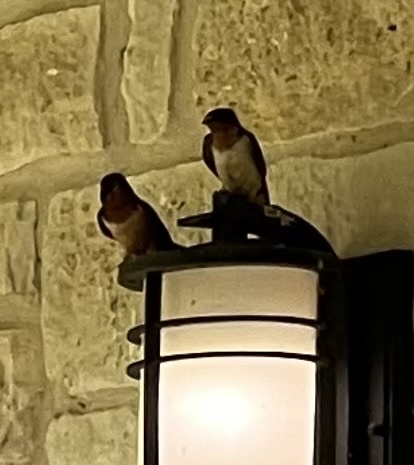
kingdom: Animalia
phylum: Chordata
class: Aves
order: Passeriformes
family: Hirundinidae
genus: Hirundo
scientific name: Hirundo rustica
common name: Barn swallow
